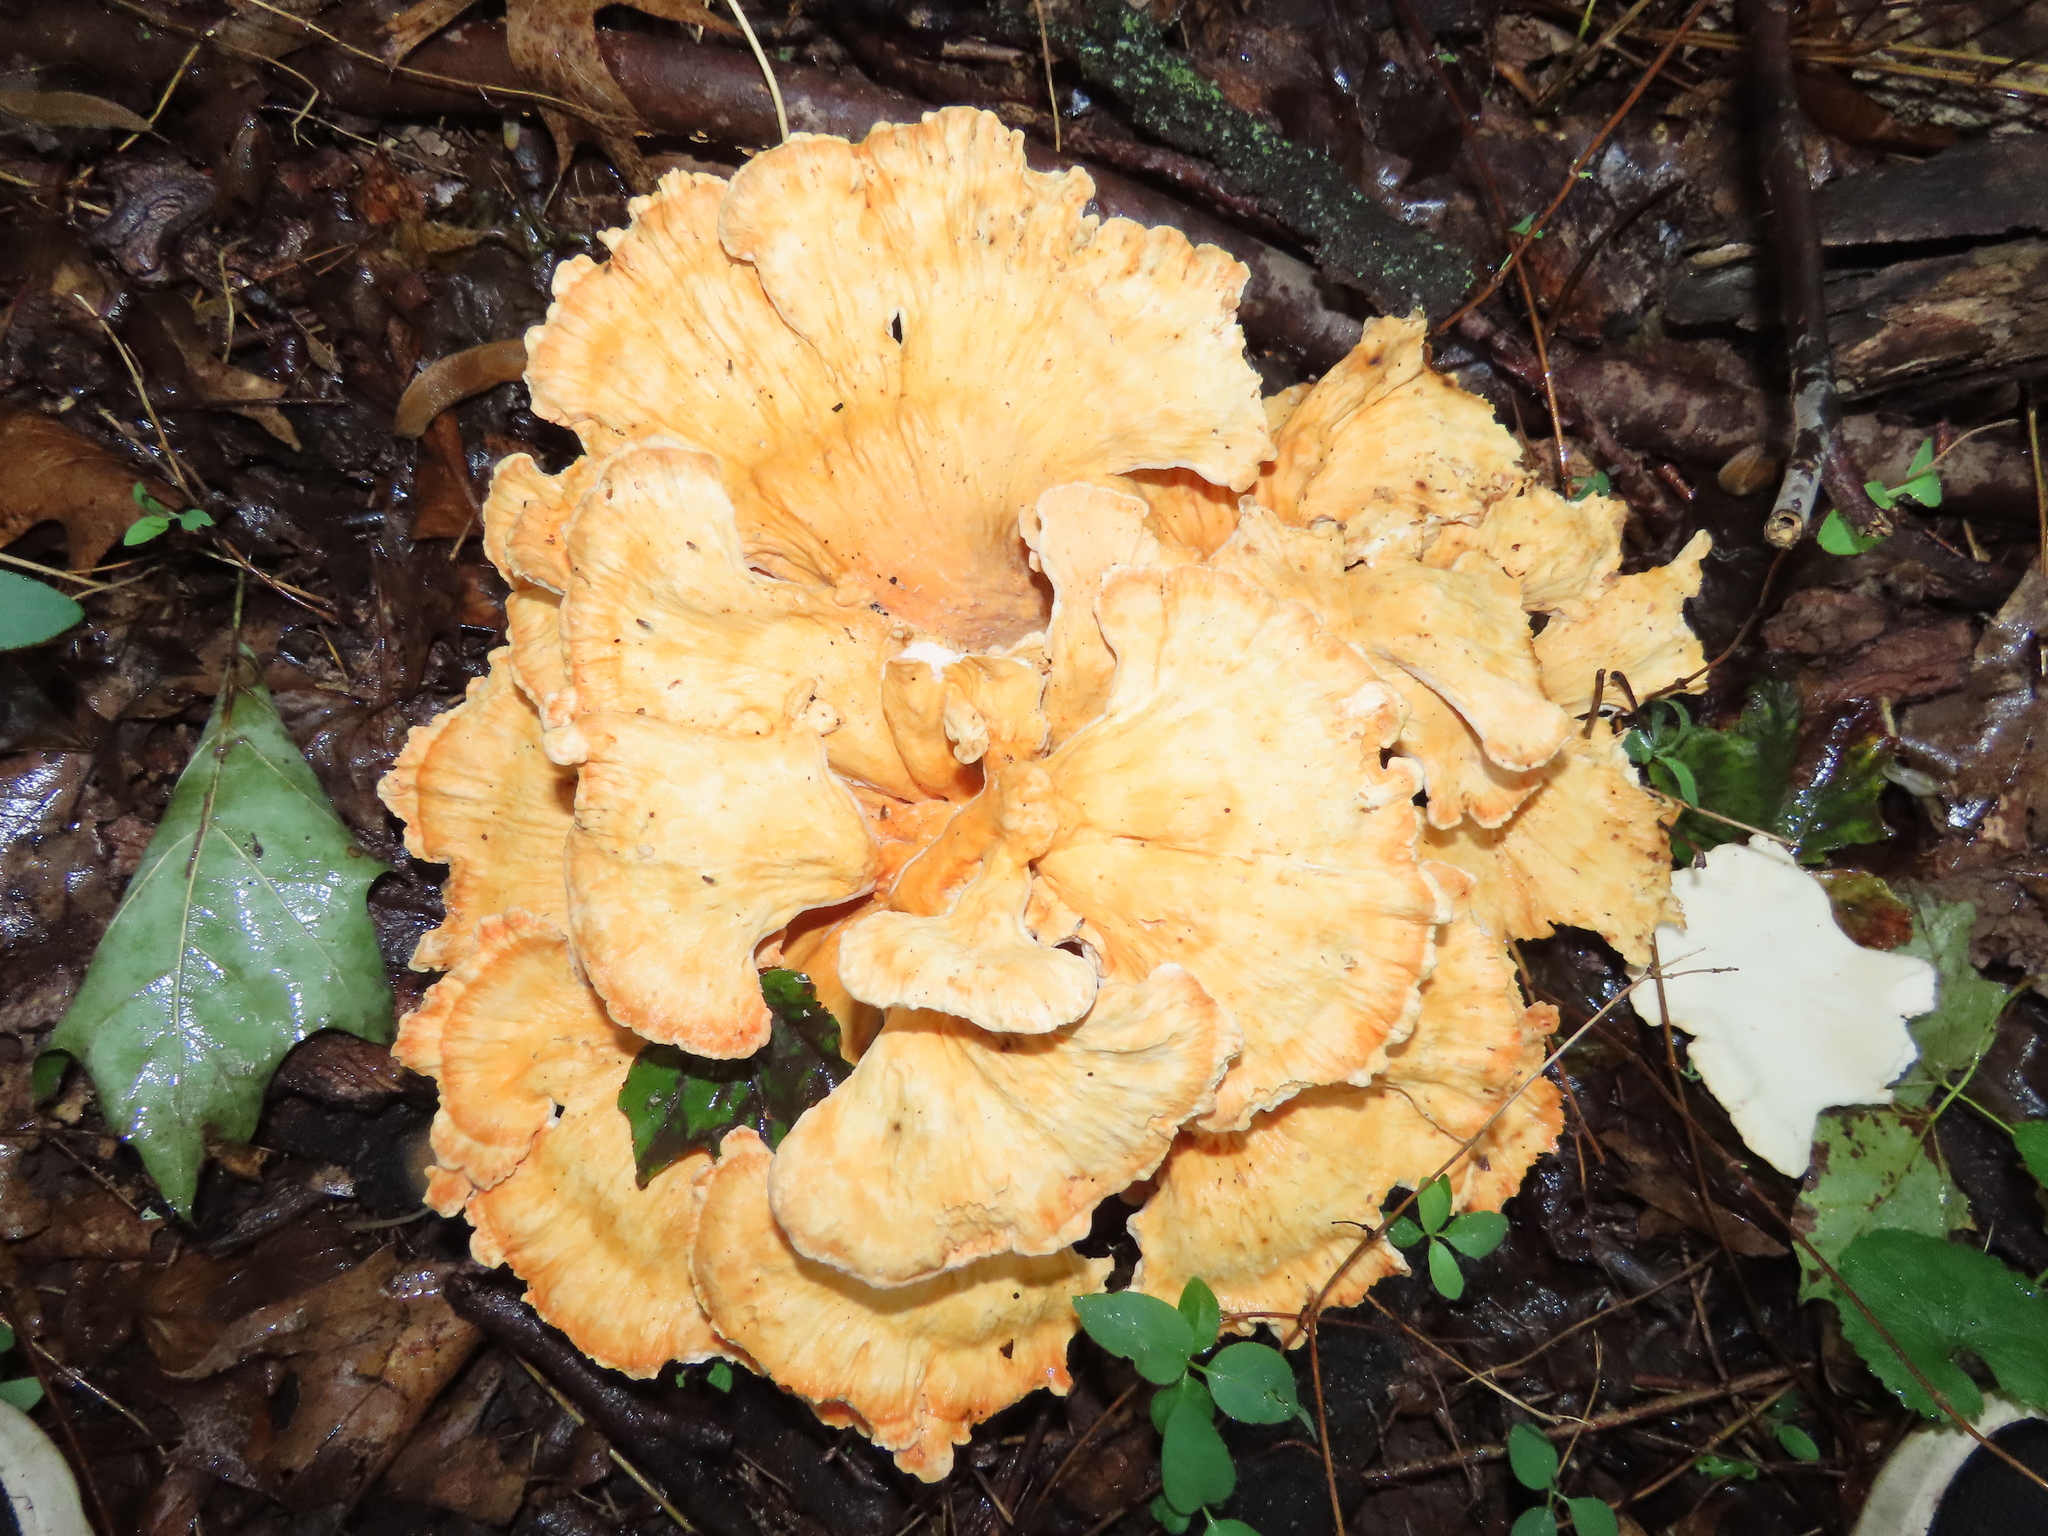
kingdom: Fungi
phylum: Basidiomycota
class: Agaricomycetes
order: Polyporales
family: Laetiporaceae
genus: Laetiporus
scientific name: Laetiporus sulphureus
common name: Chicken of the woods
